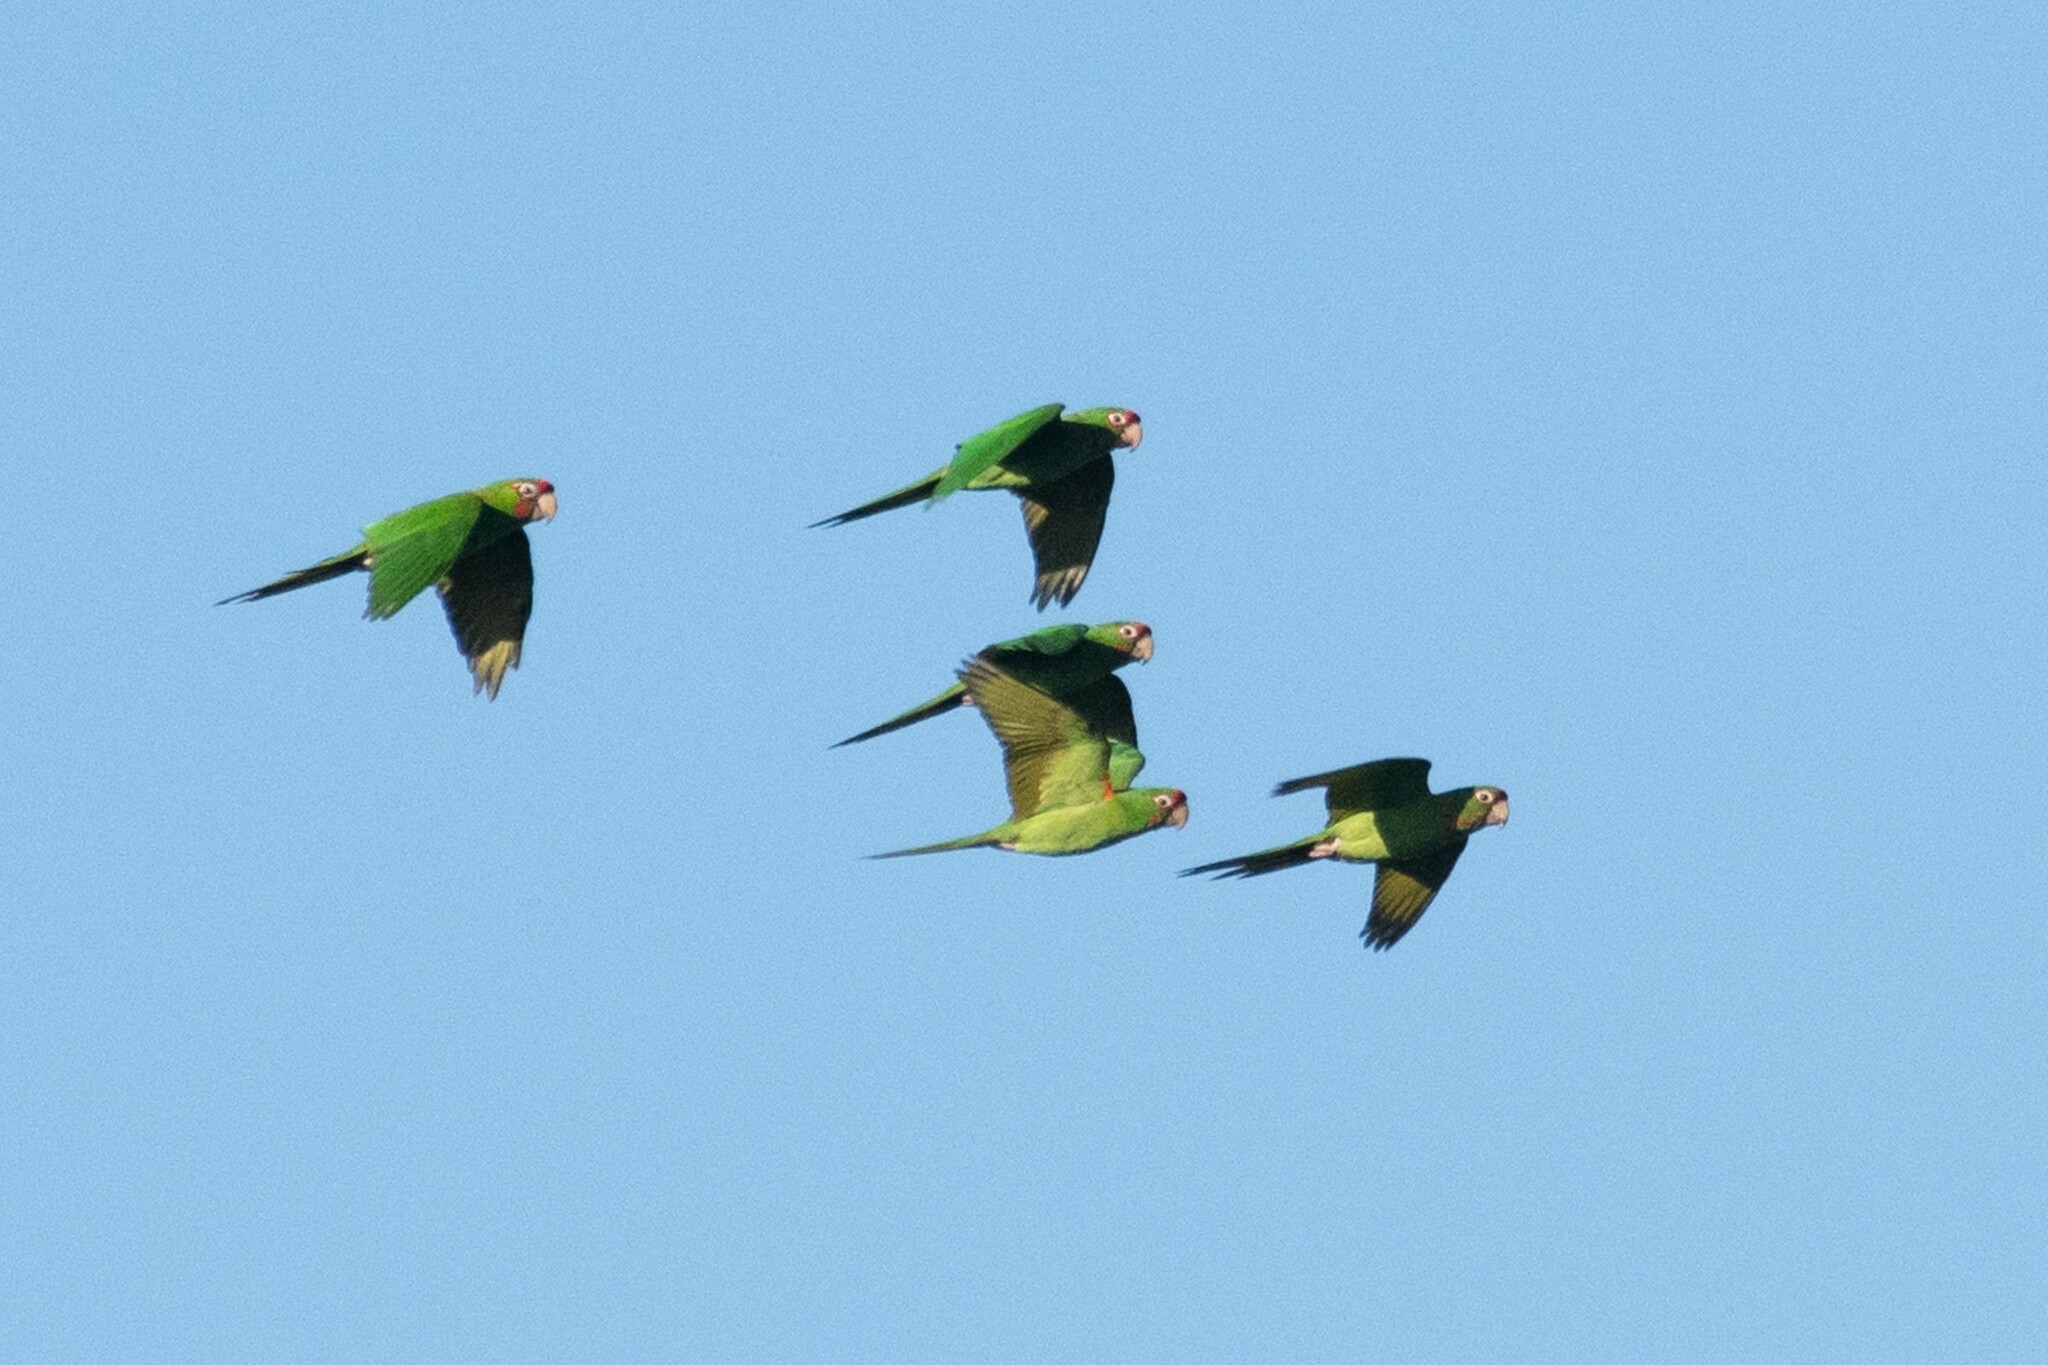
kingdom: Animalia
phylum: Chordata
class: Aves
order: Psittaciformes
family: Psittacidae
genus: Aratinga
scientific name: Aratinga mitrata
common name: Mitred parakeet
